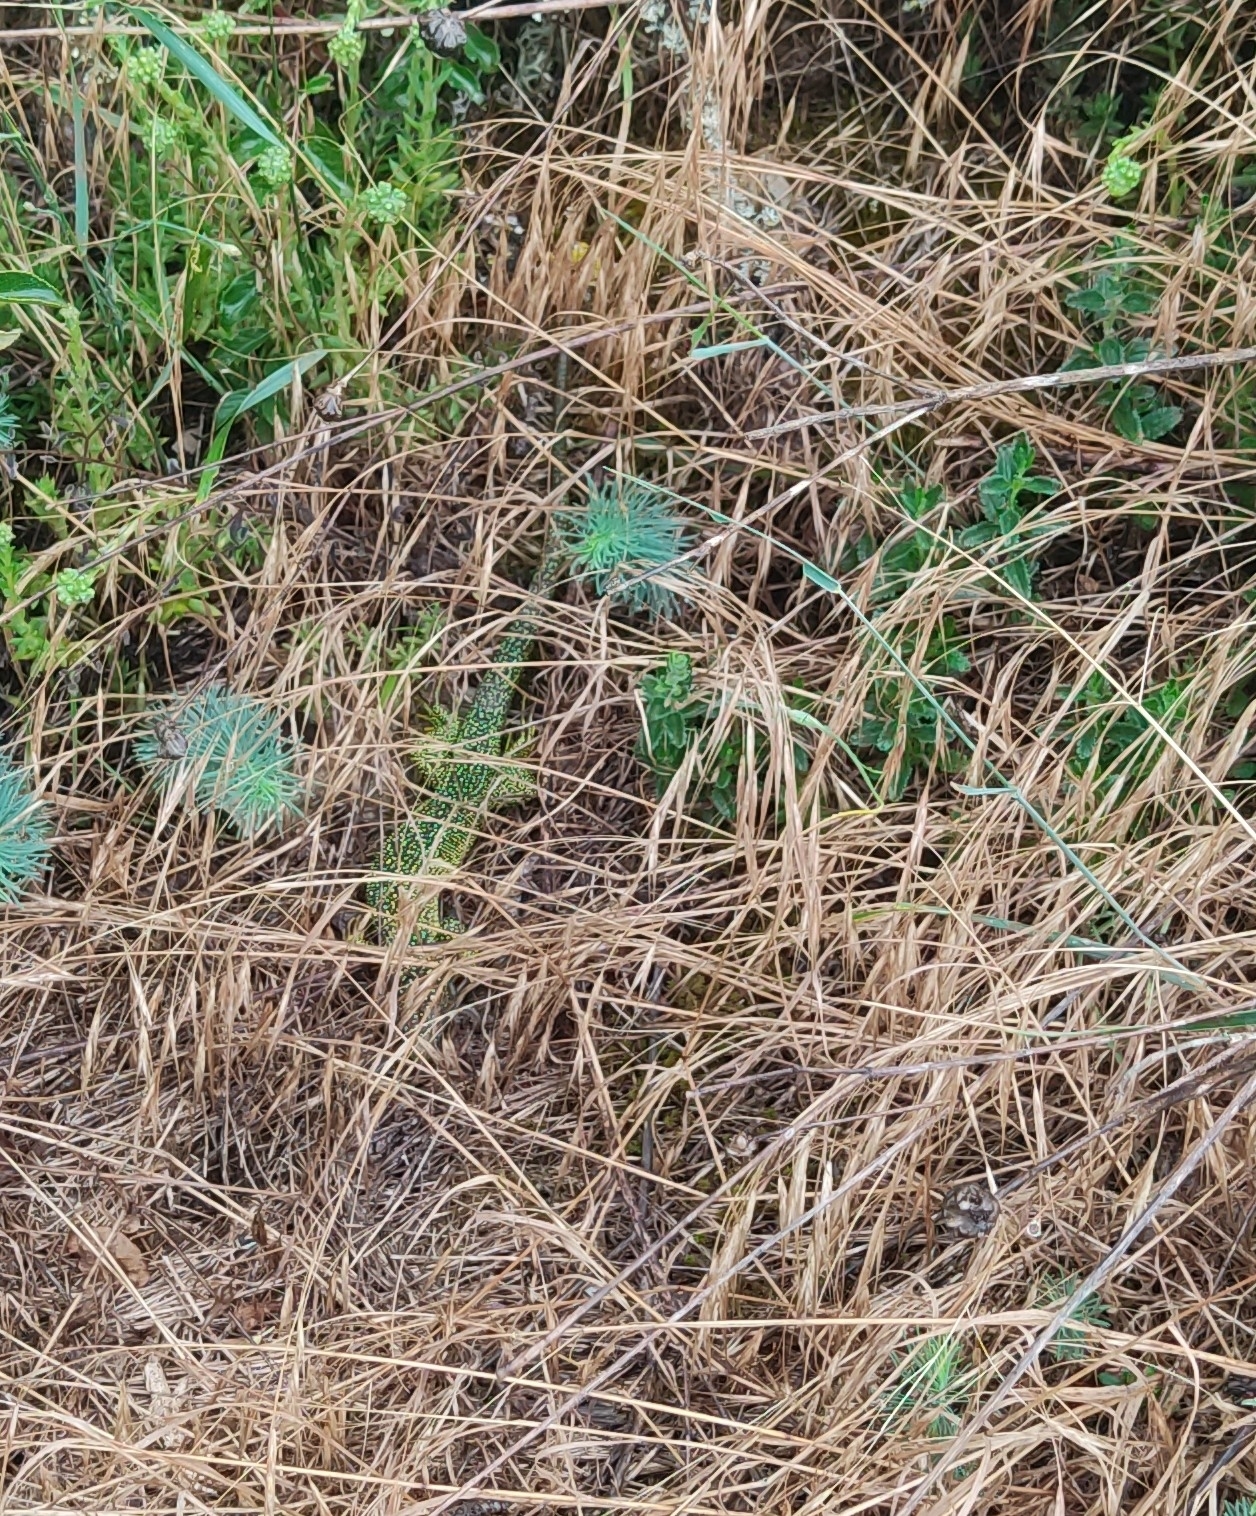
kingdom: Animalia
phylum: Chordata
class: Squamata
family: Lacertidae
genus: Lacerta
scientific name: Lacerta bilineata
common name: Western green lizard
